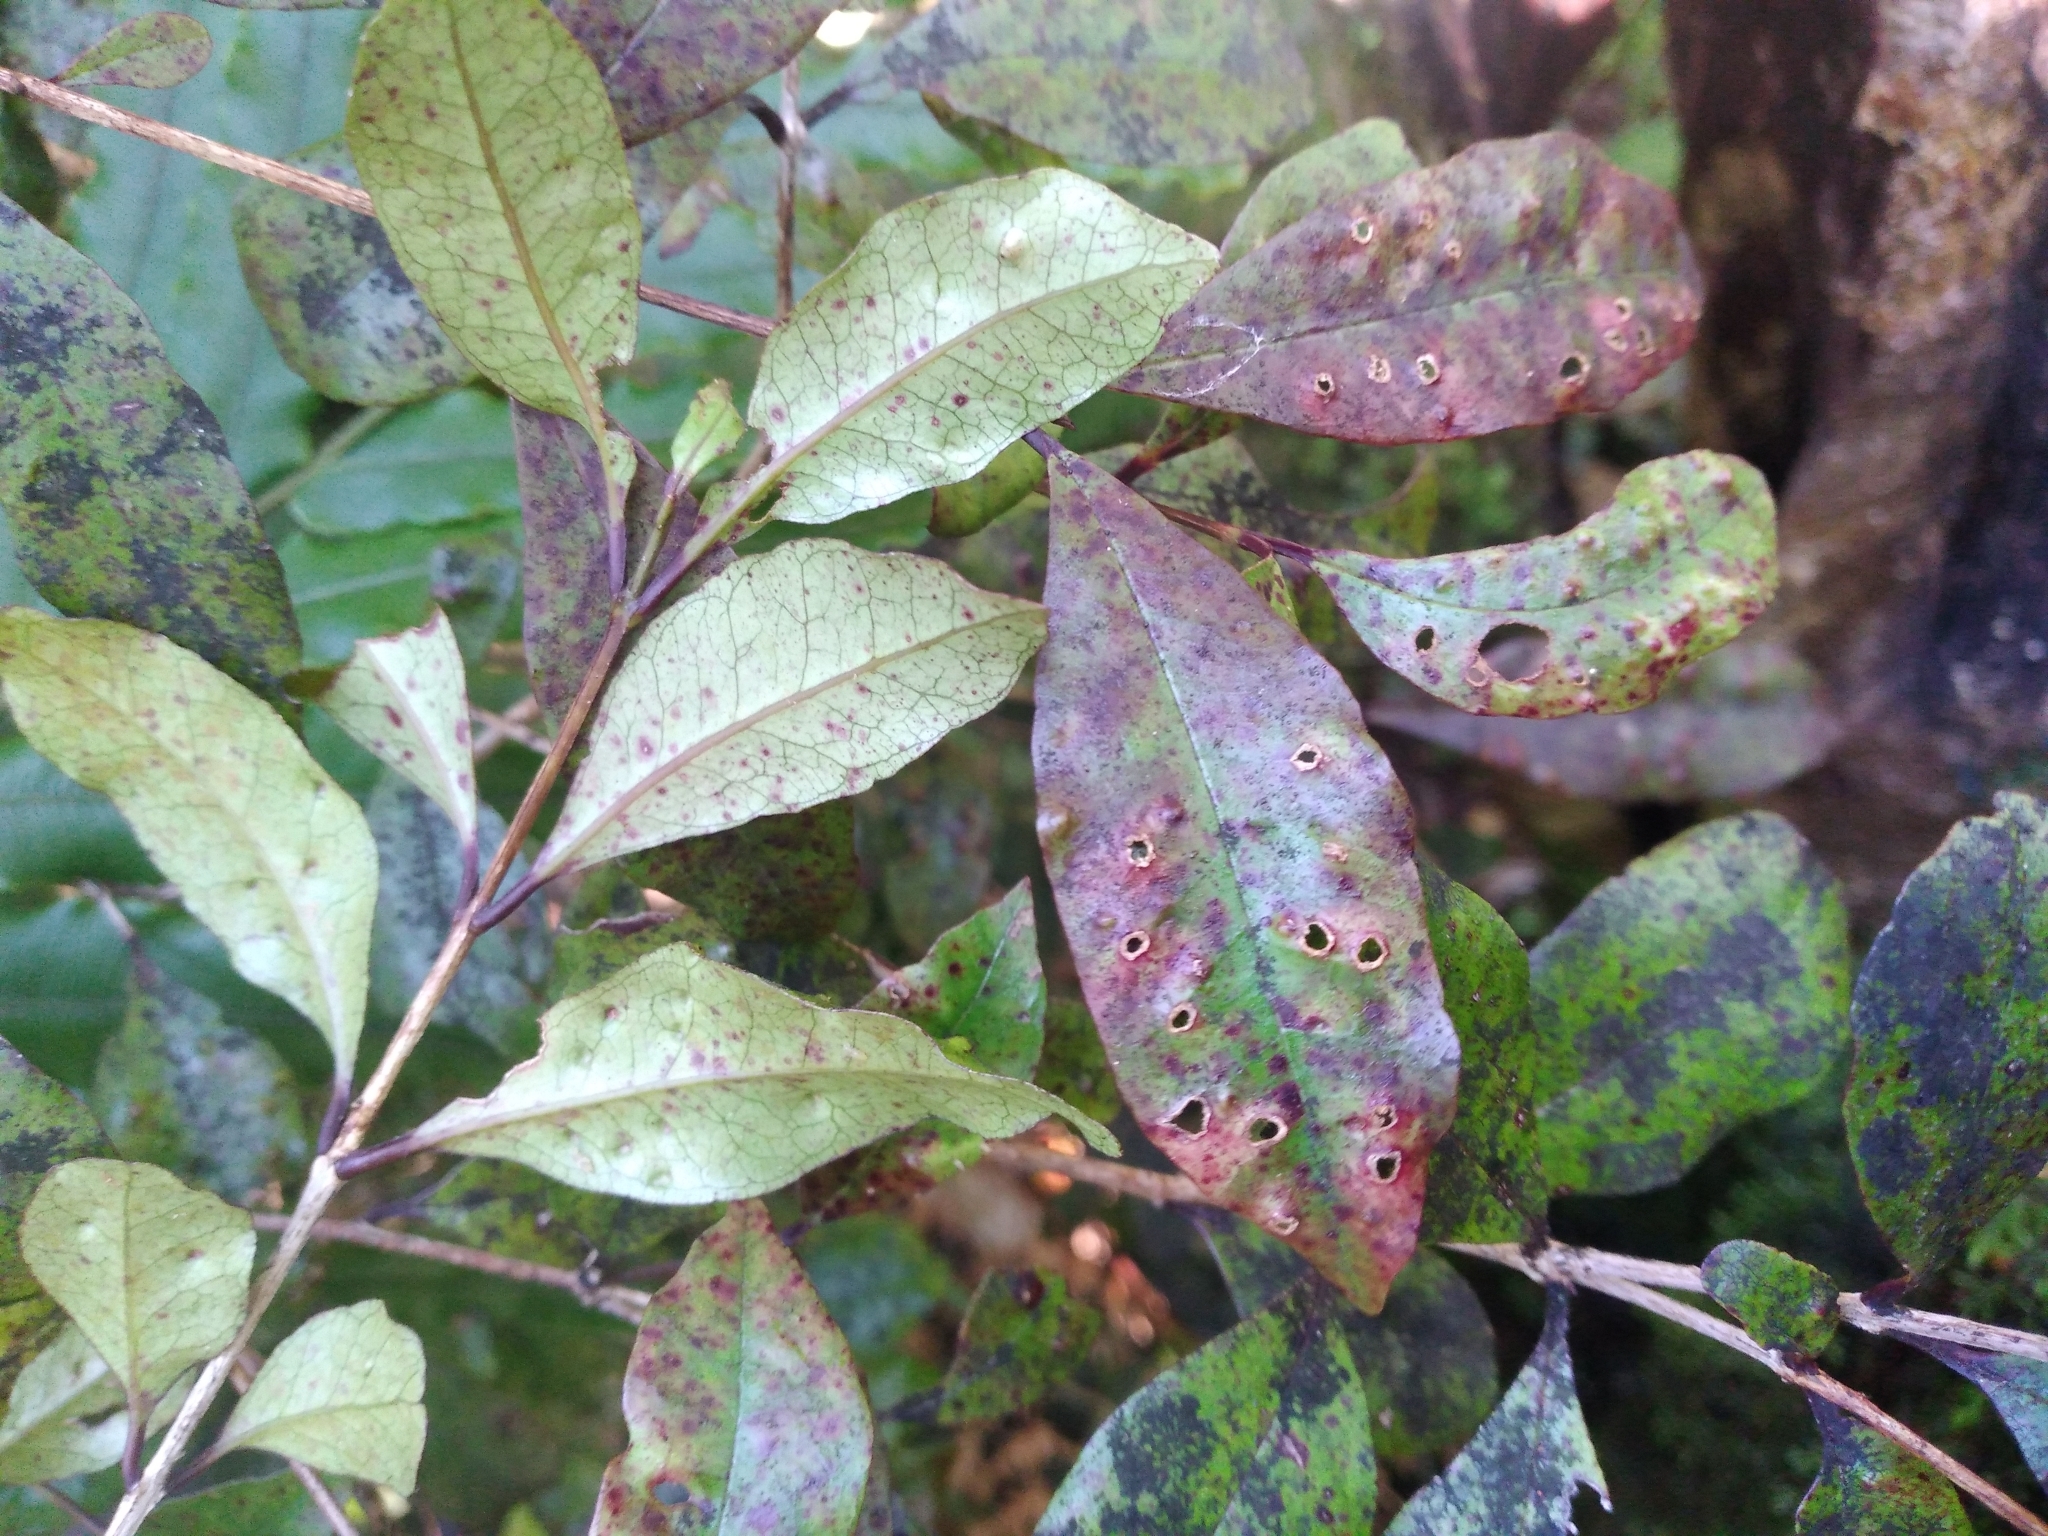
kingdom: Plantae
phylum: Tracheophyta
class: Magnoliopsida
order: Myrtales
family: Myrtaceae
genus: Syzygium
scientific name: Syzygium maire
